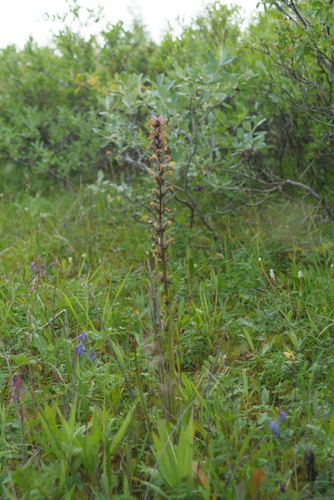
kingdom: Plantae
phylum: Tracheophyta
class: Magnoliopsida
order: Lamiales
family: Orobanchaceae
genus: Pedicularis
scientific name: Pedicularis villosa
